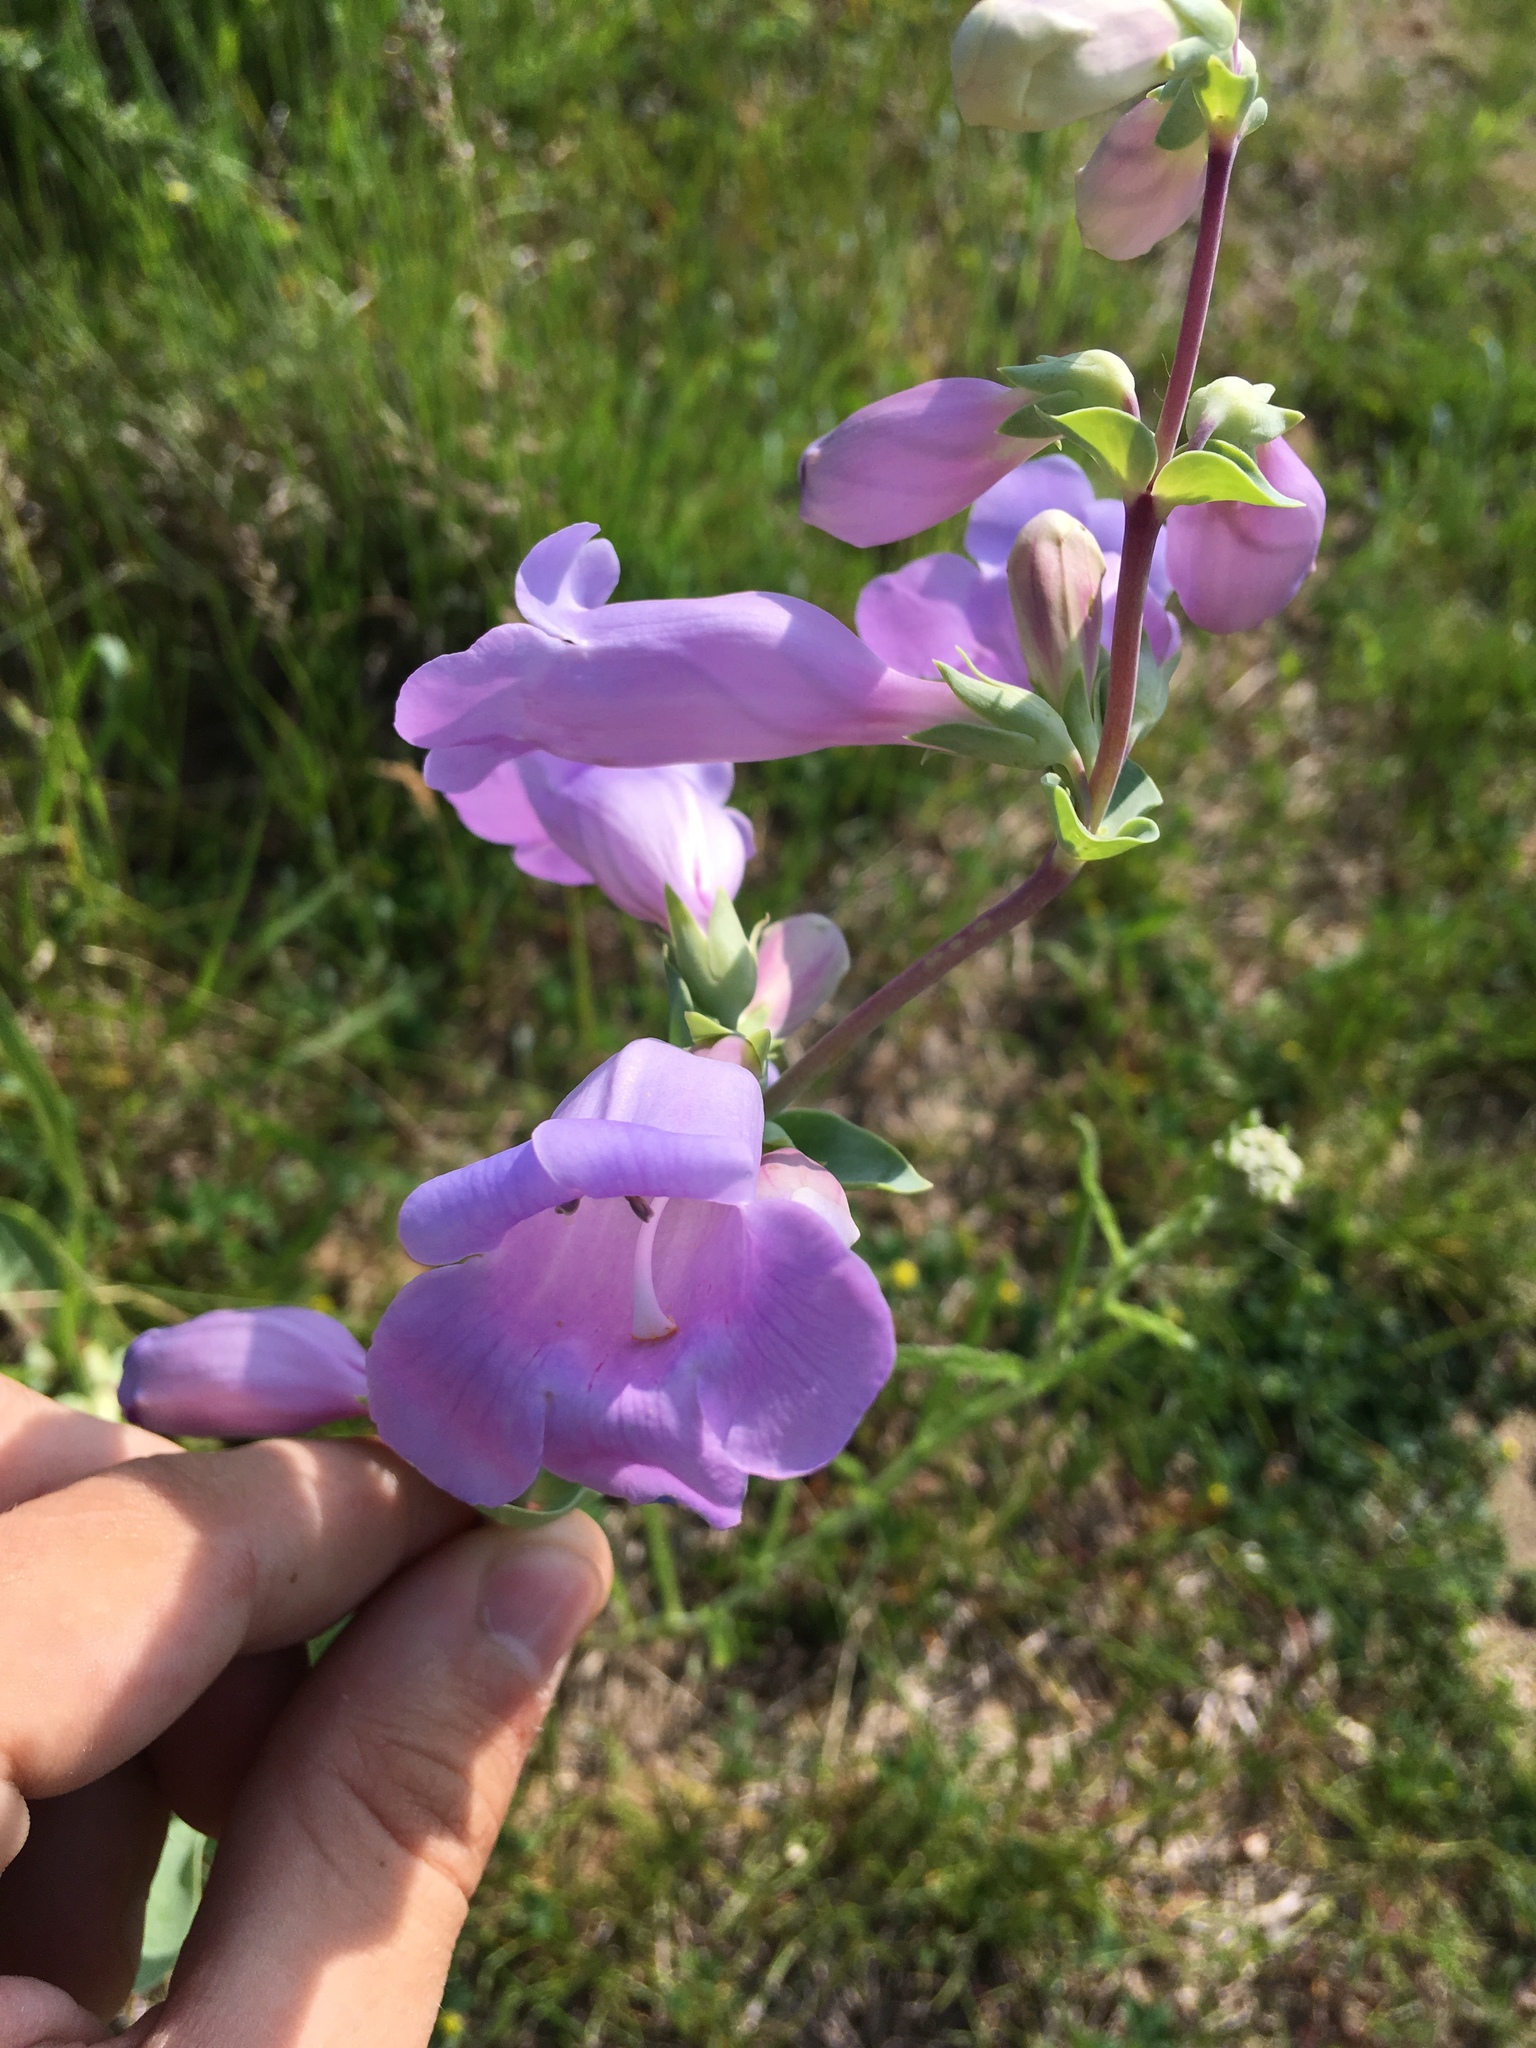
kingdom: Plantae
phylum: Tracheophyta
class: Magnoliopsida
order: Lamiales
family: Plantaginaceae
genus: Penstemon
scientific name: Penstemon
